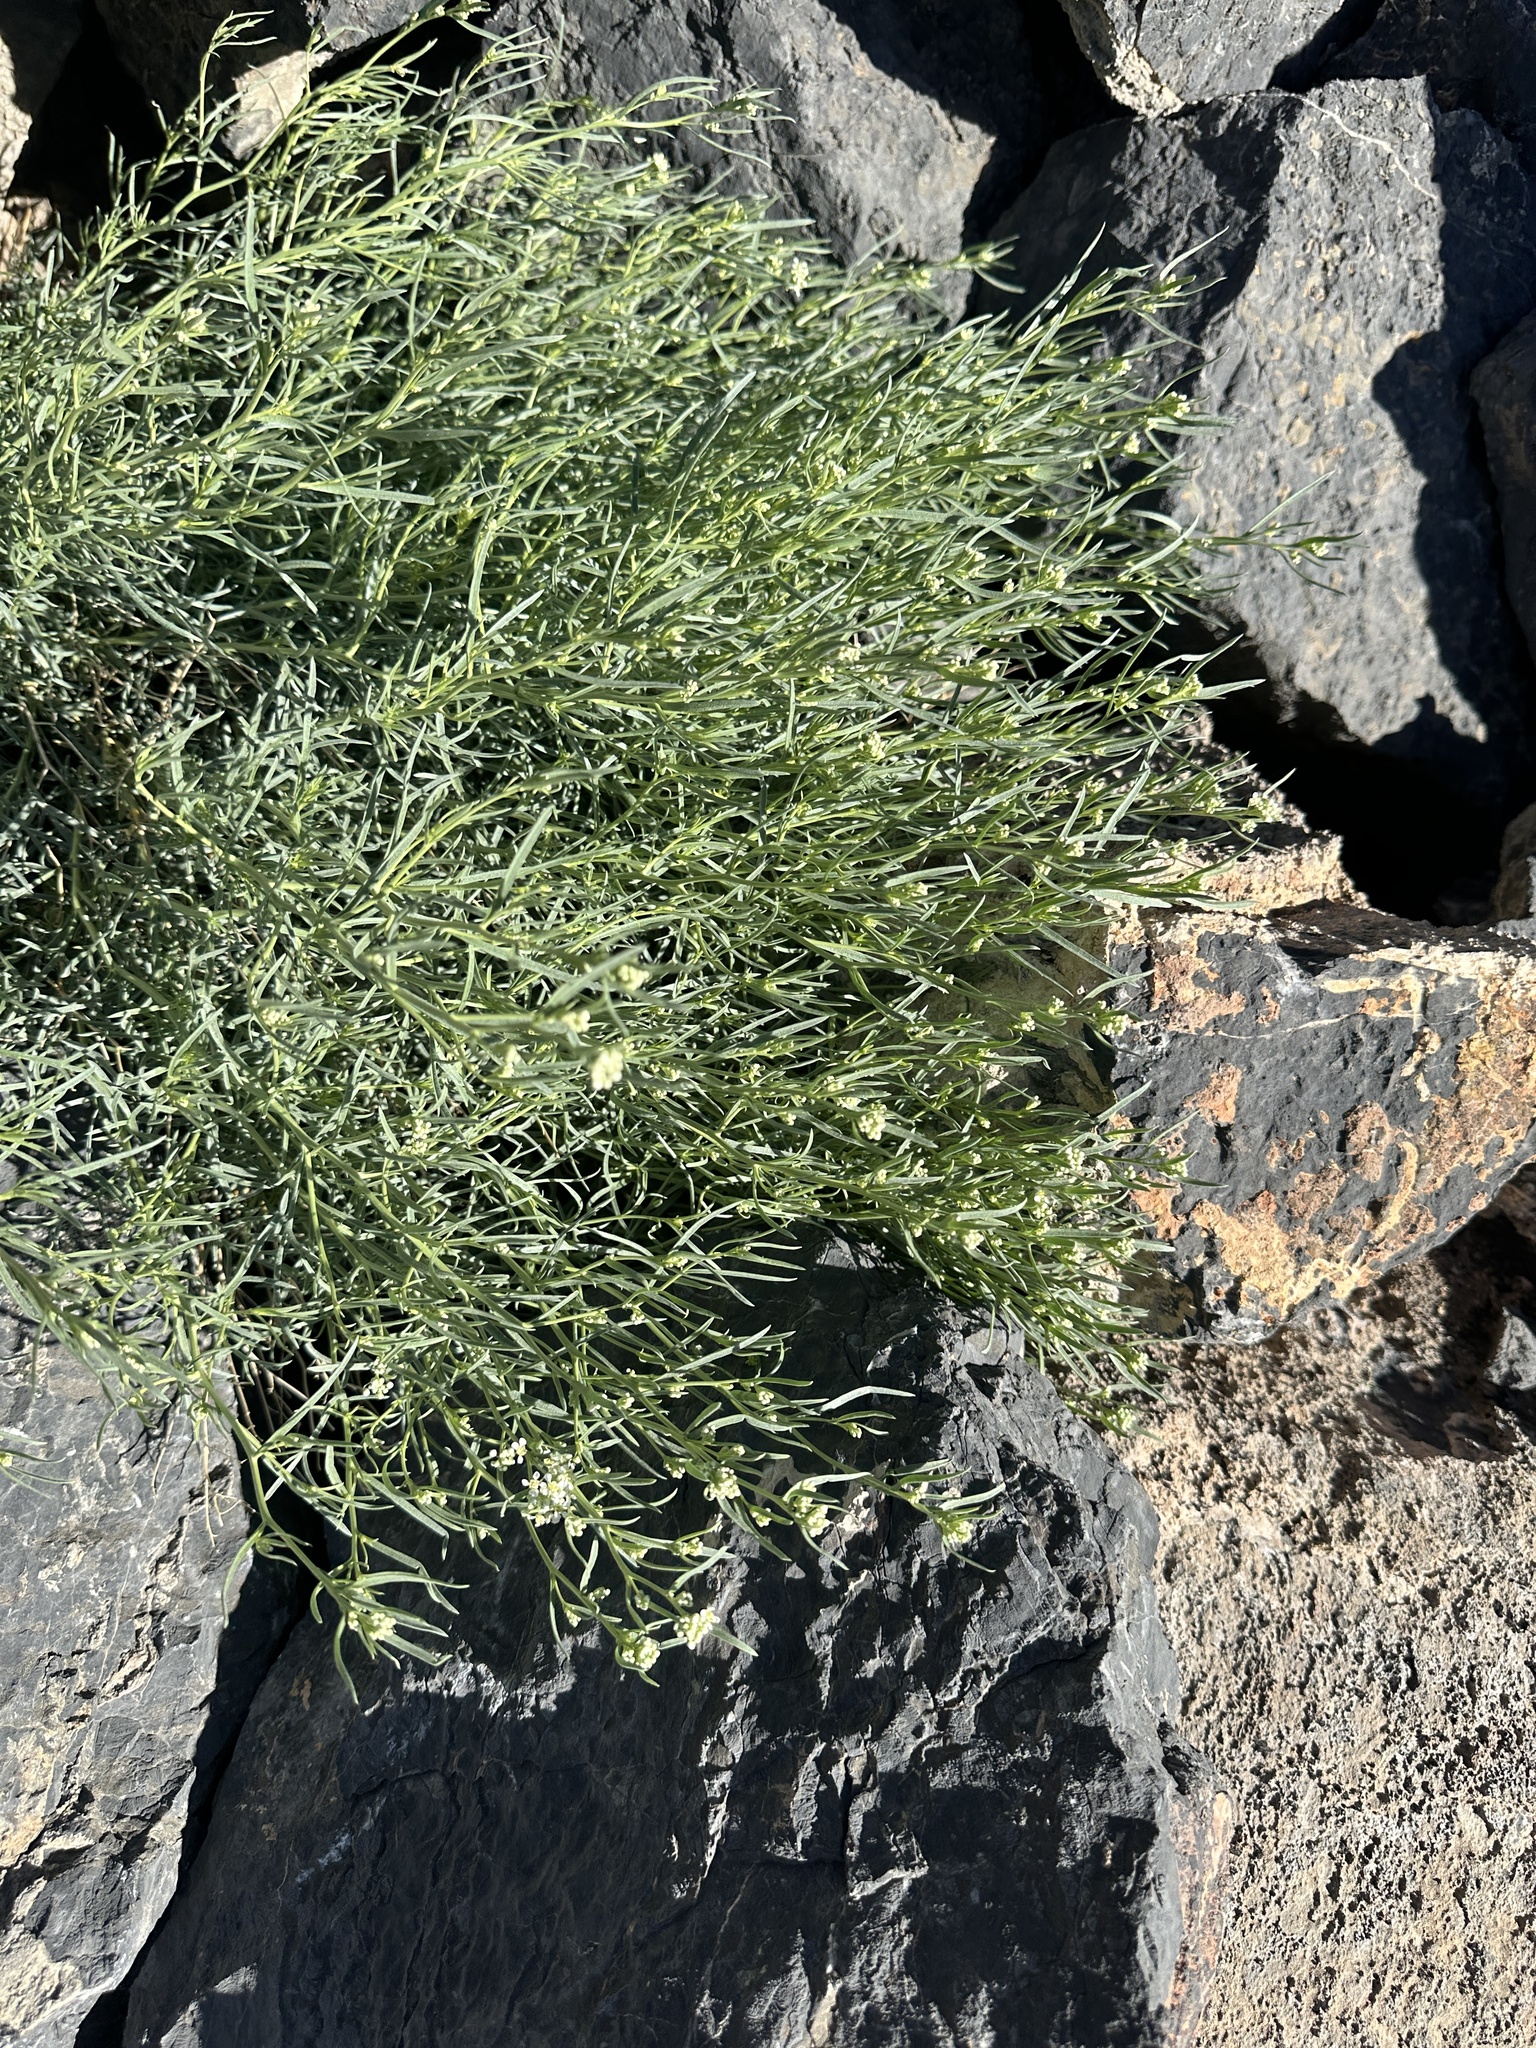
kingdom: Plantae
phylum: Tracheophyta
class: Magnoliopsida
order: Brassicales
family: Brassicaceae
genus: Lepidium
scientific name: Lepidium fremontii
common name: Fremont's pepperwort
